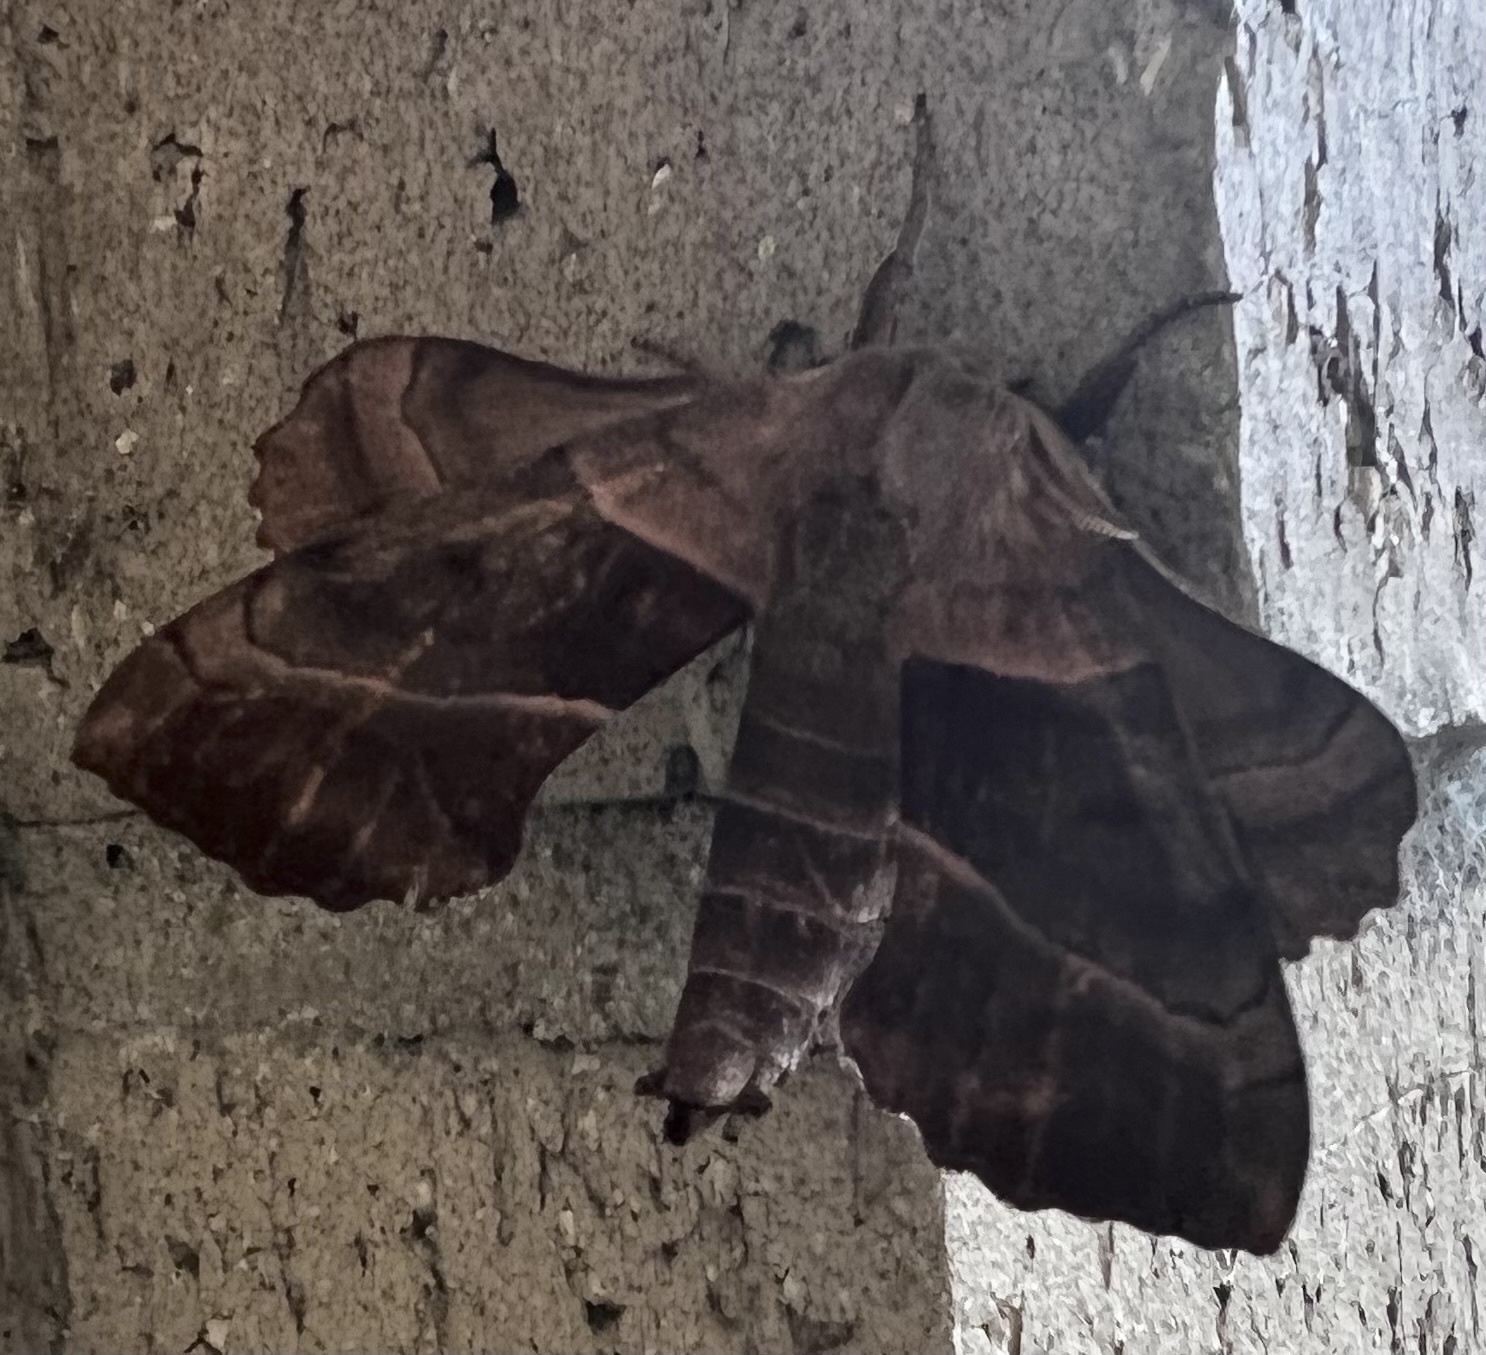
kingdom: Animalia
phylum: Arthropoda
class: Insecta
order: Lepidoptera
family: Sphingidae
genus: Amorpha
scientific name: Amorpha juglandis
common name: Walnut sphinx
